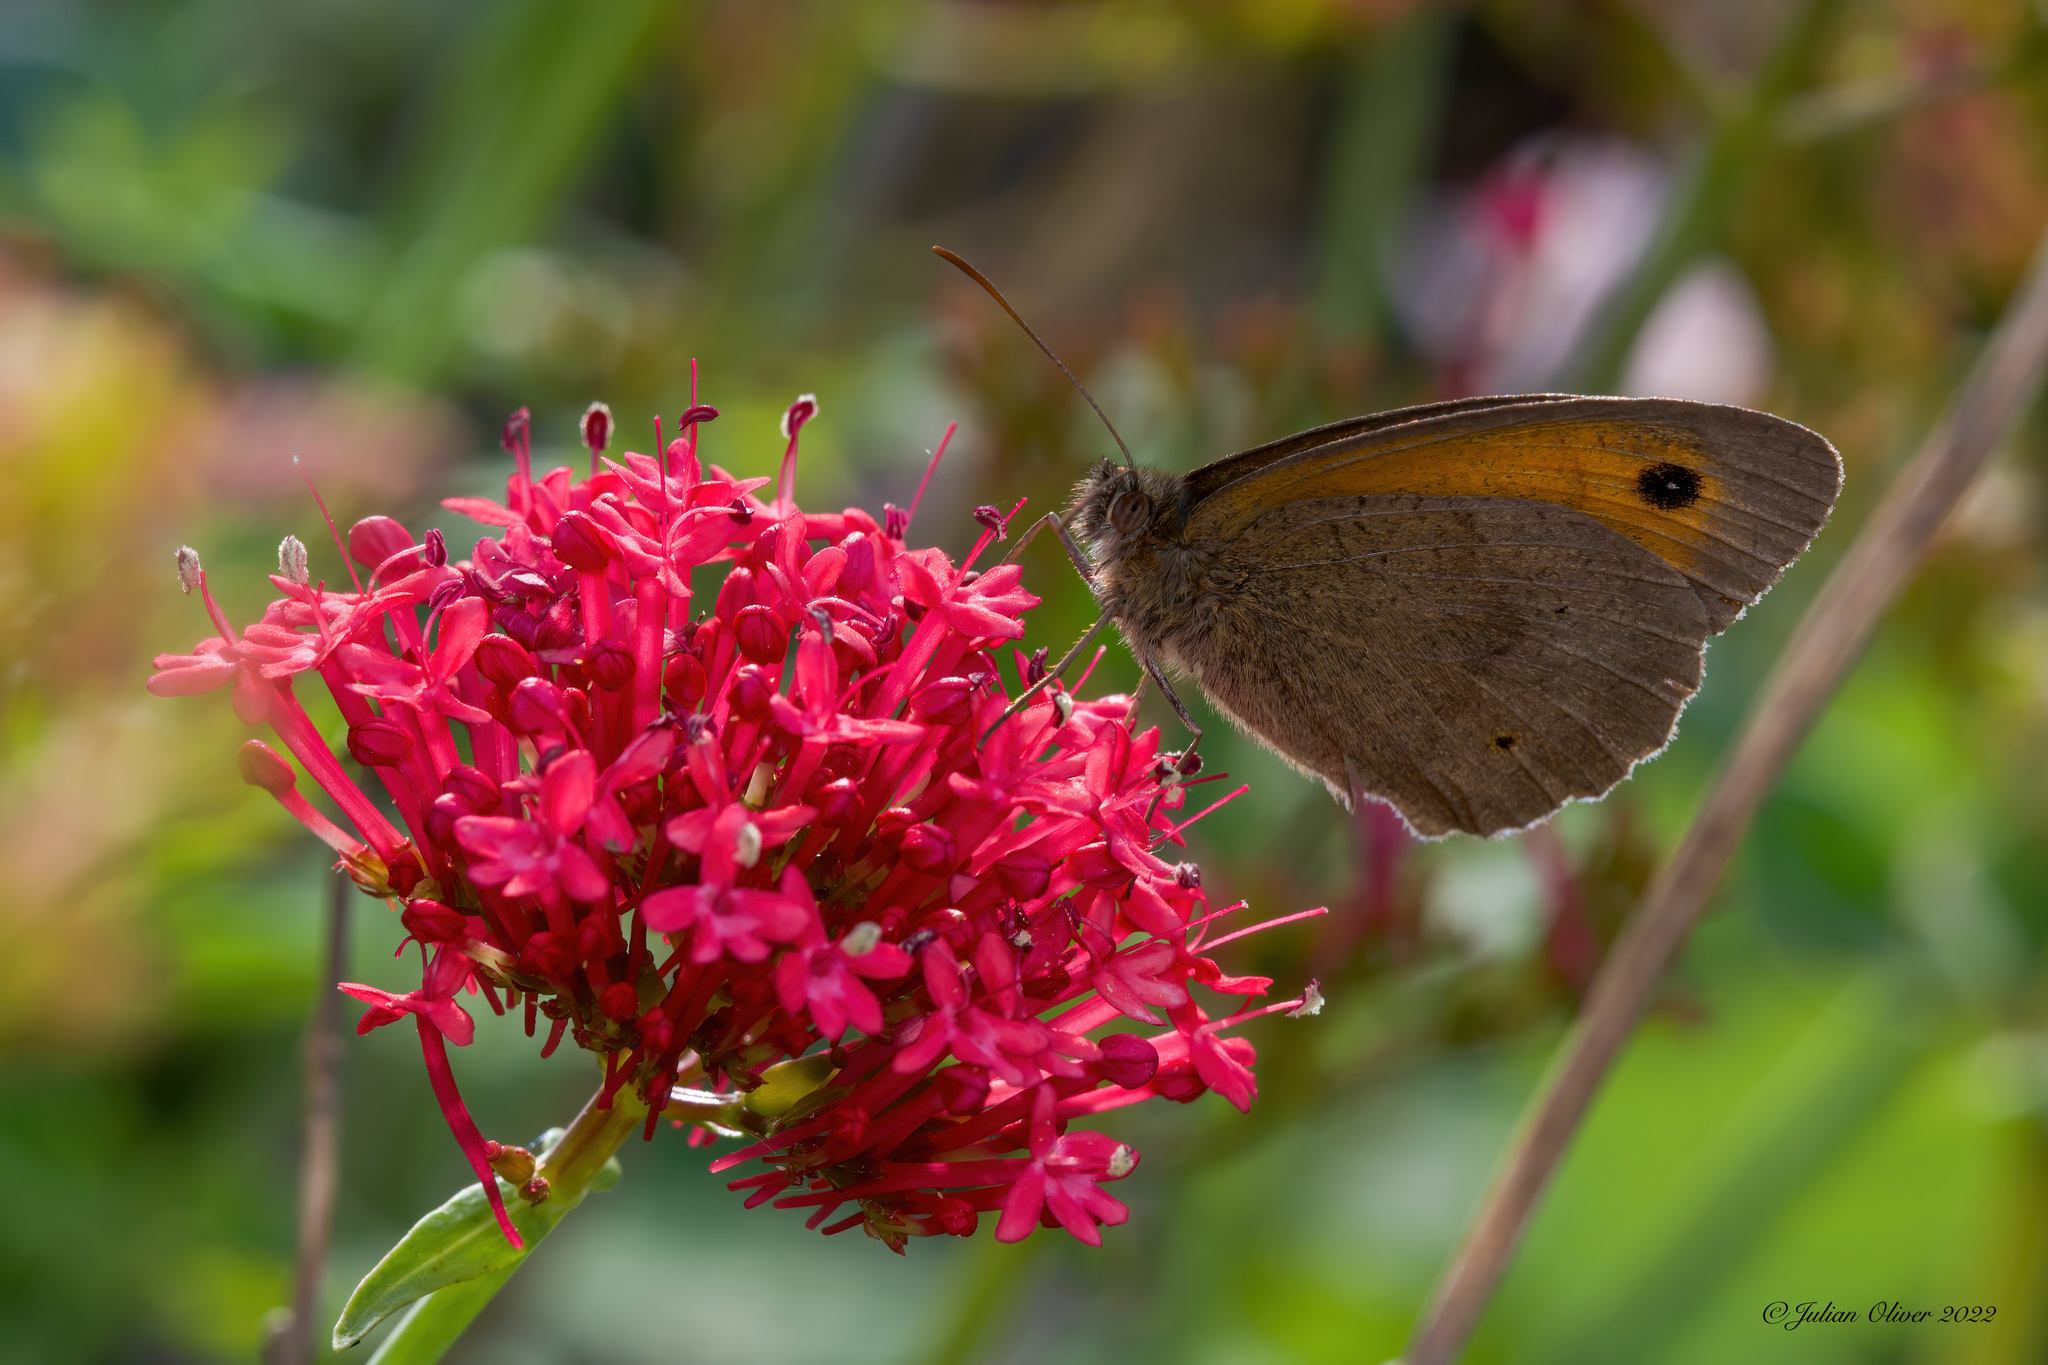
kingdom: Animalia
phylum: Arthropoda
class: Insecta
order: Lepidoptera
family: Nymphalidae
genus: Maniola
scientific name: Maniola jurtina
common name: Meadow brown
